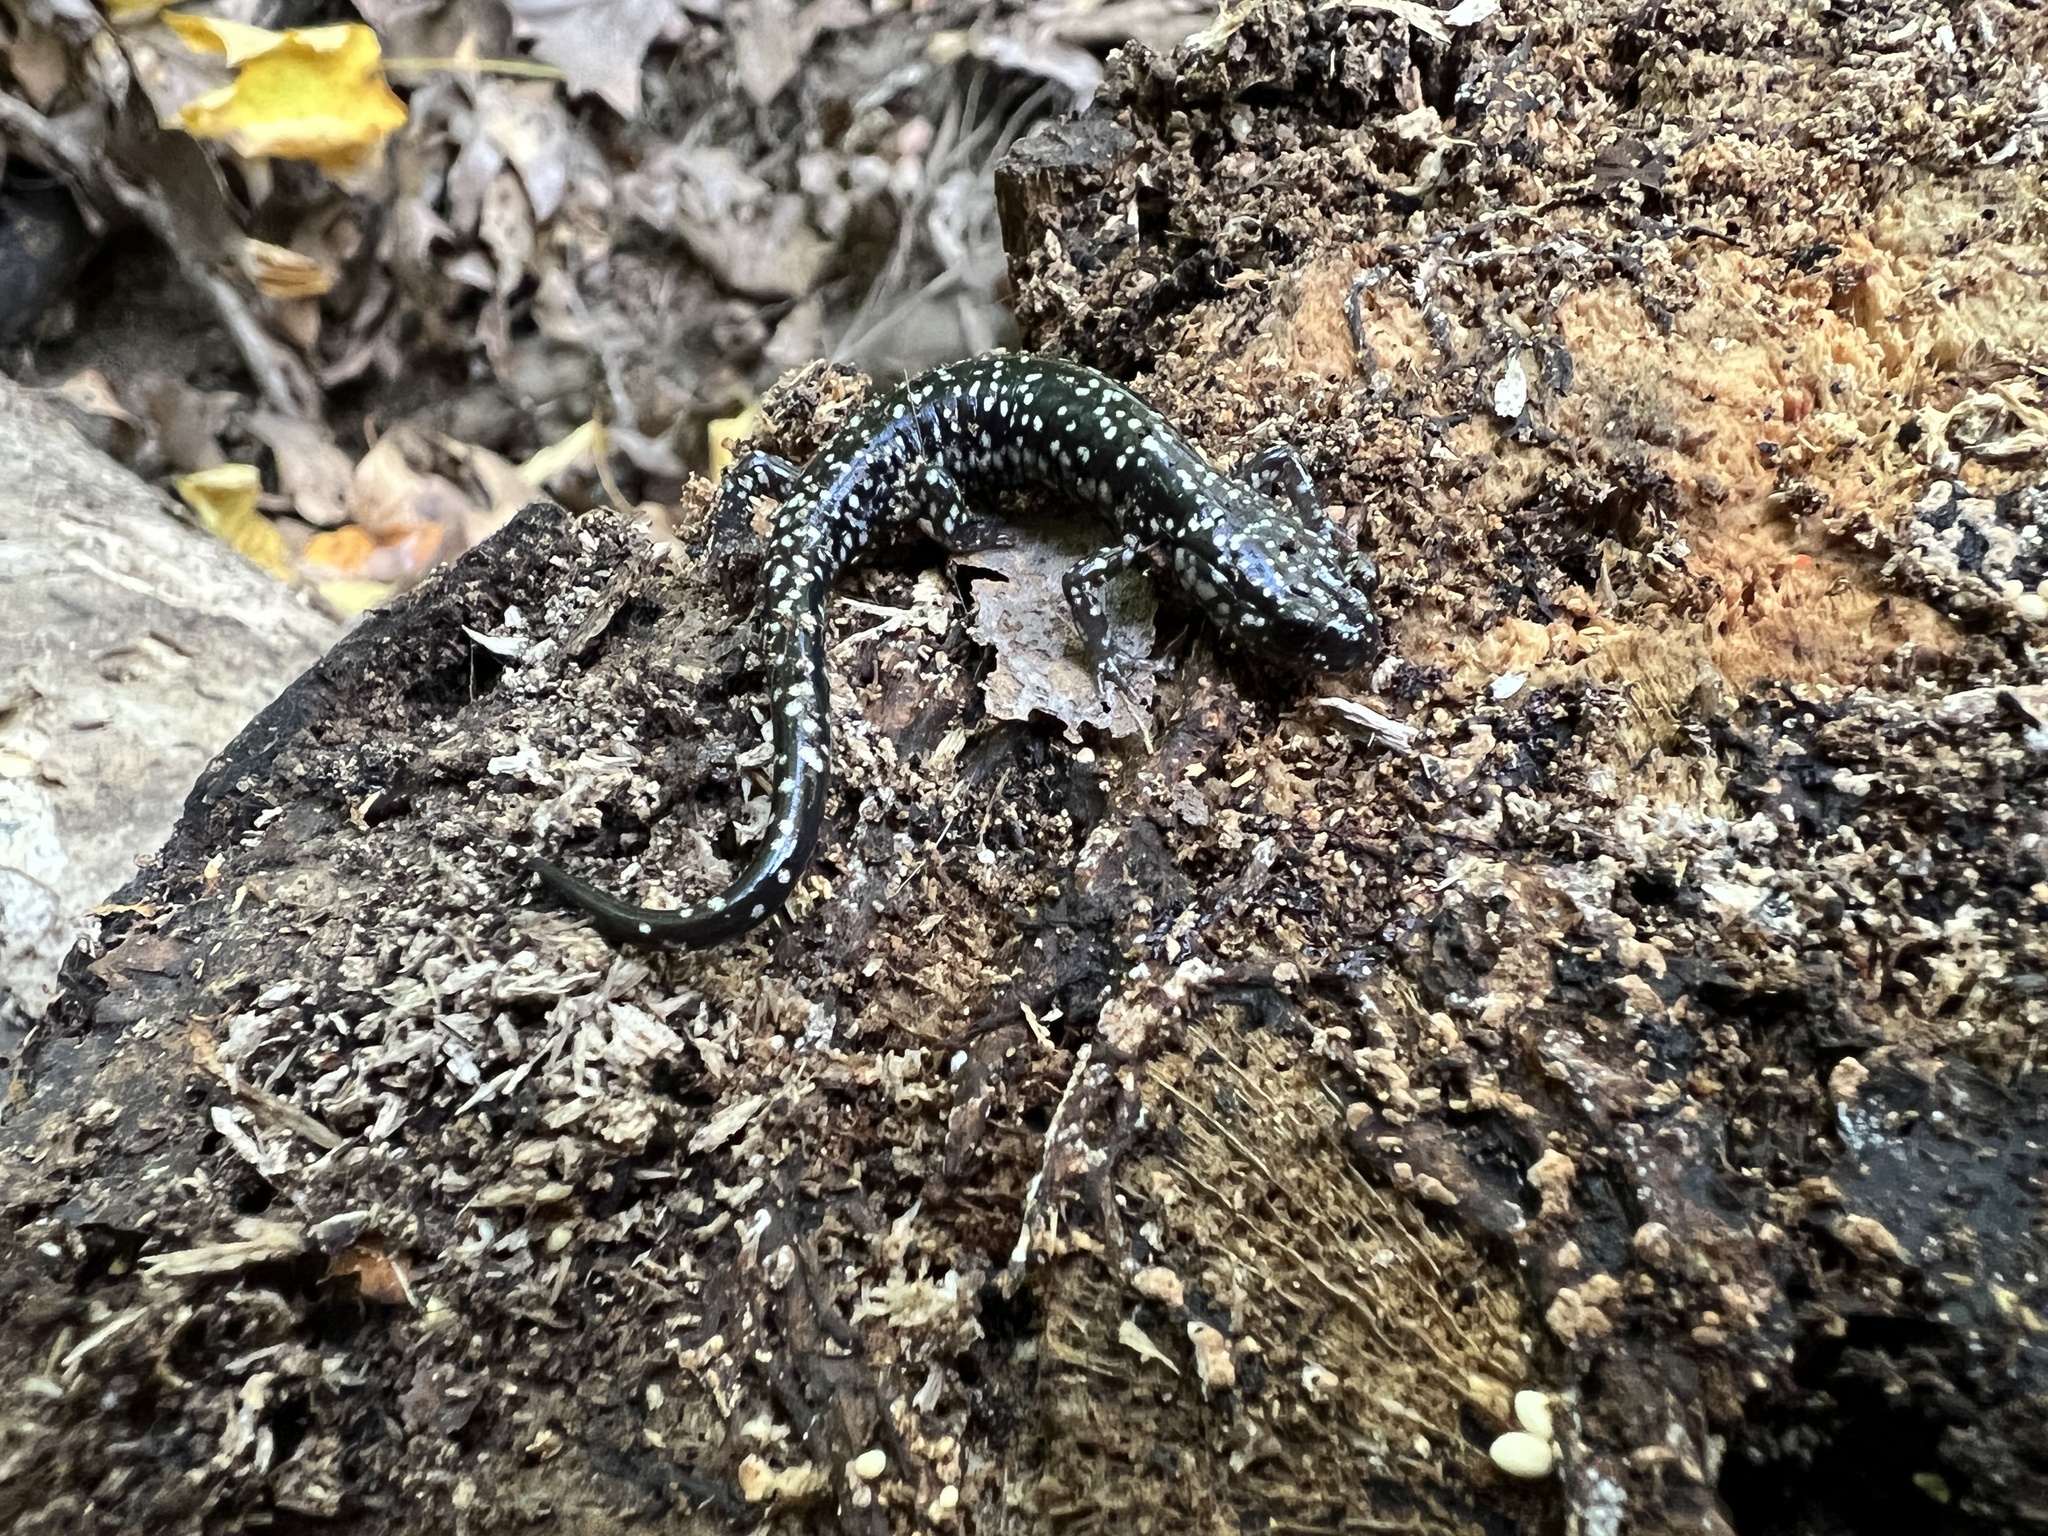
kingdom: Animalia
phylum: Chordata
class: Amphibia
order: Caudata
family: Plethodontidae
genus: Plethodon
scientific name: Plethodon glutinosus
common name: Northern slimy salamander
